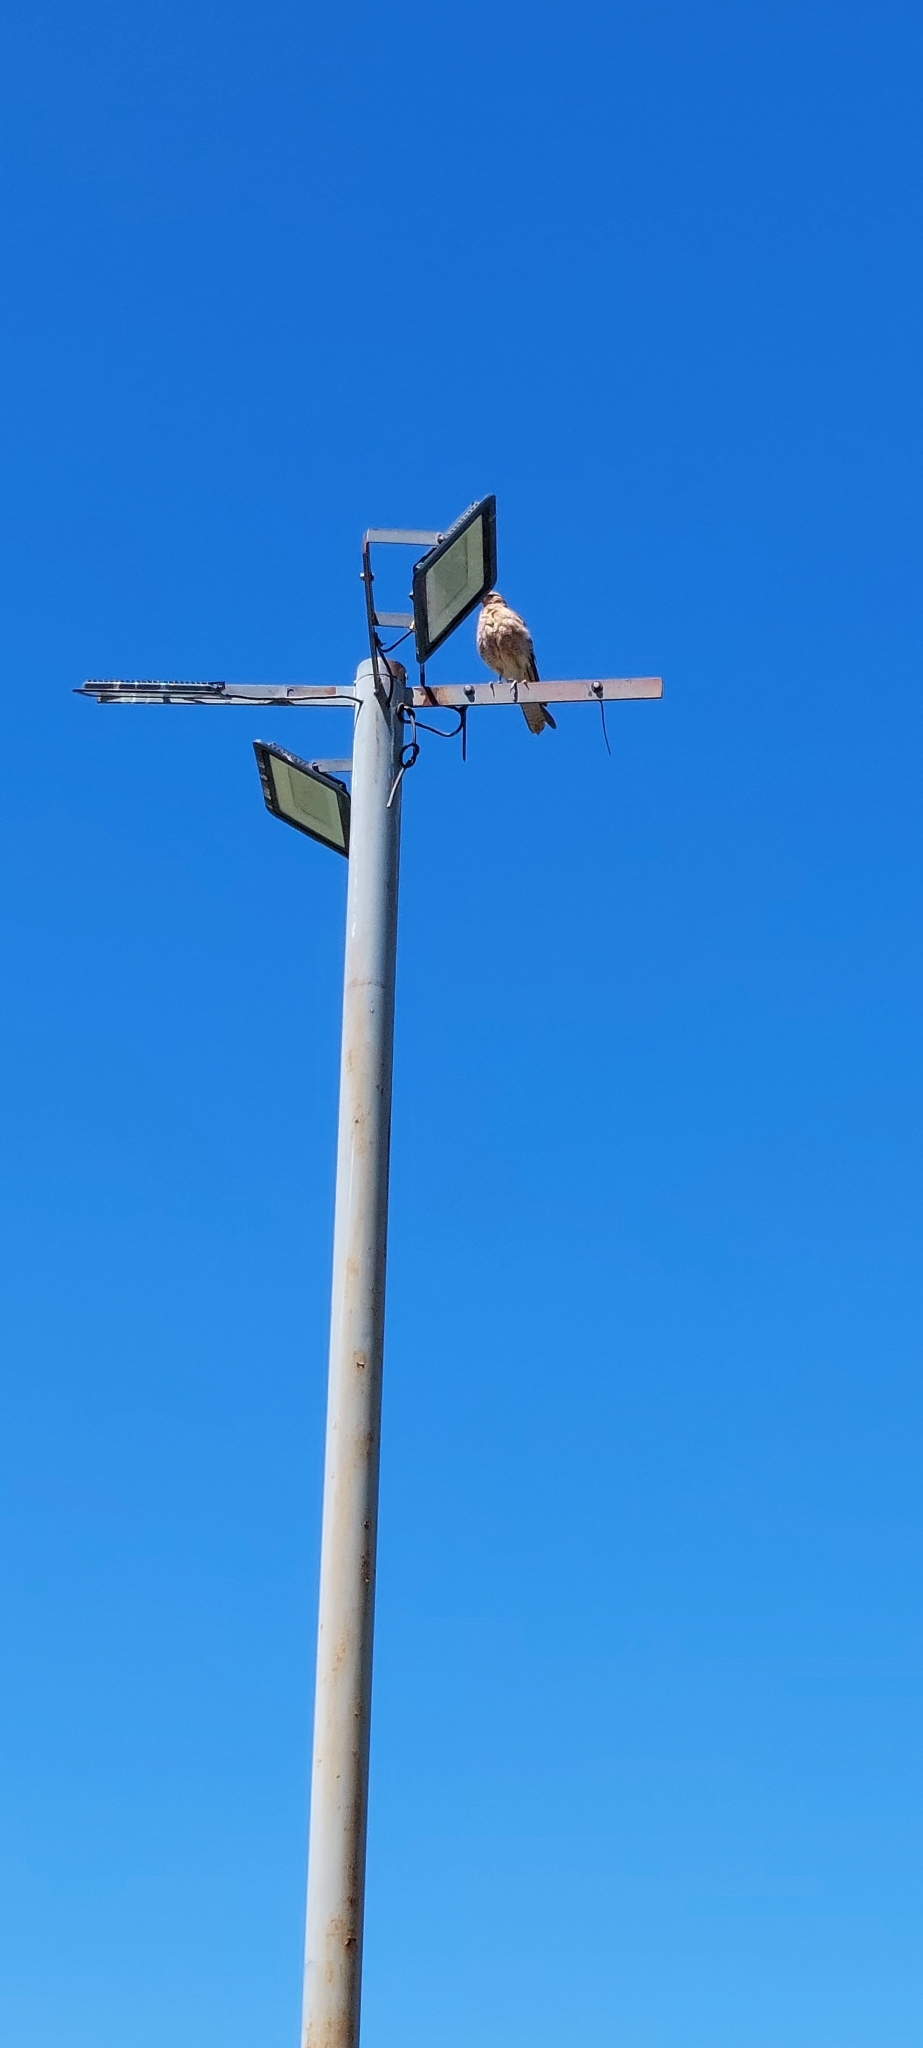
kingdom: Animalia
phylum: Chordata
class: Aves
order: Falconiformes
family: Falconidae
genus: Daptrius
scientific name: Daptrius
